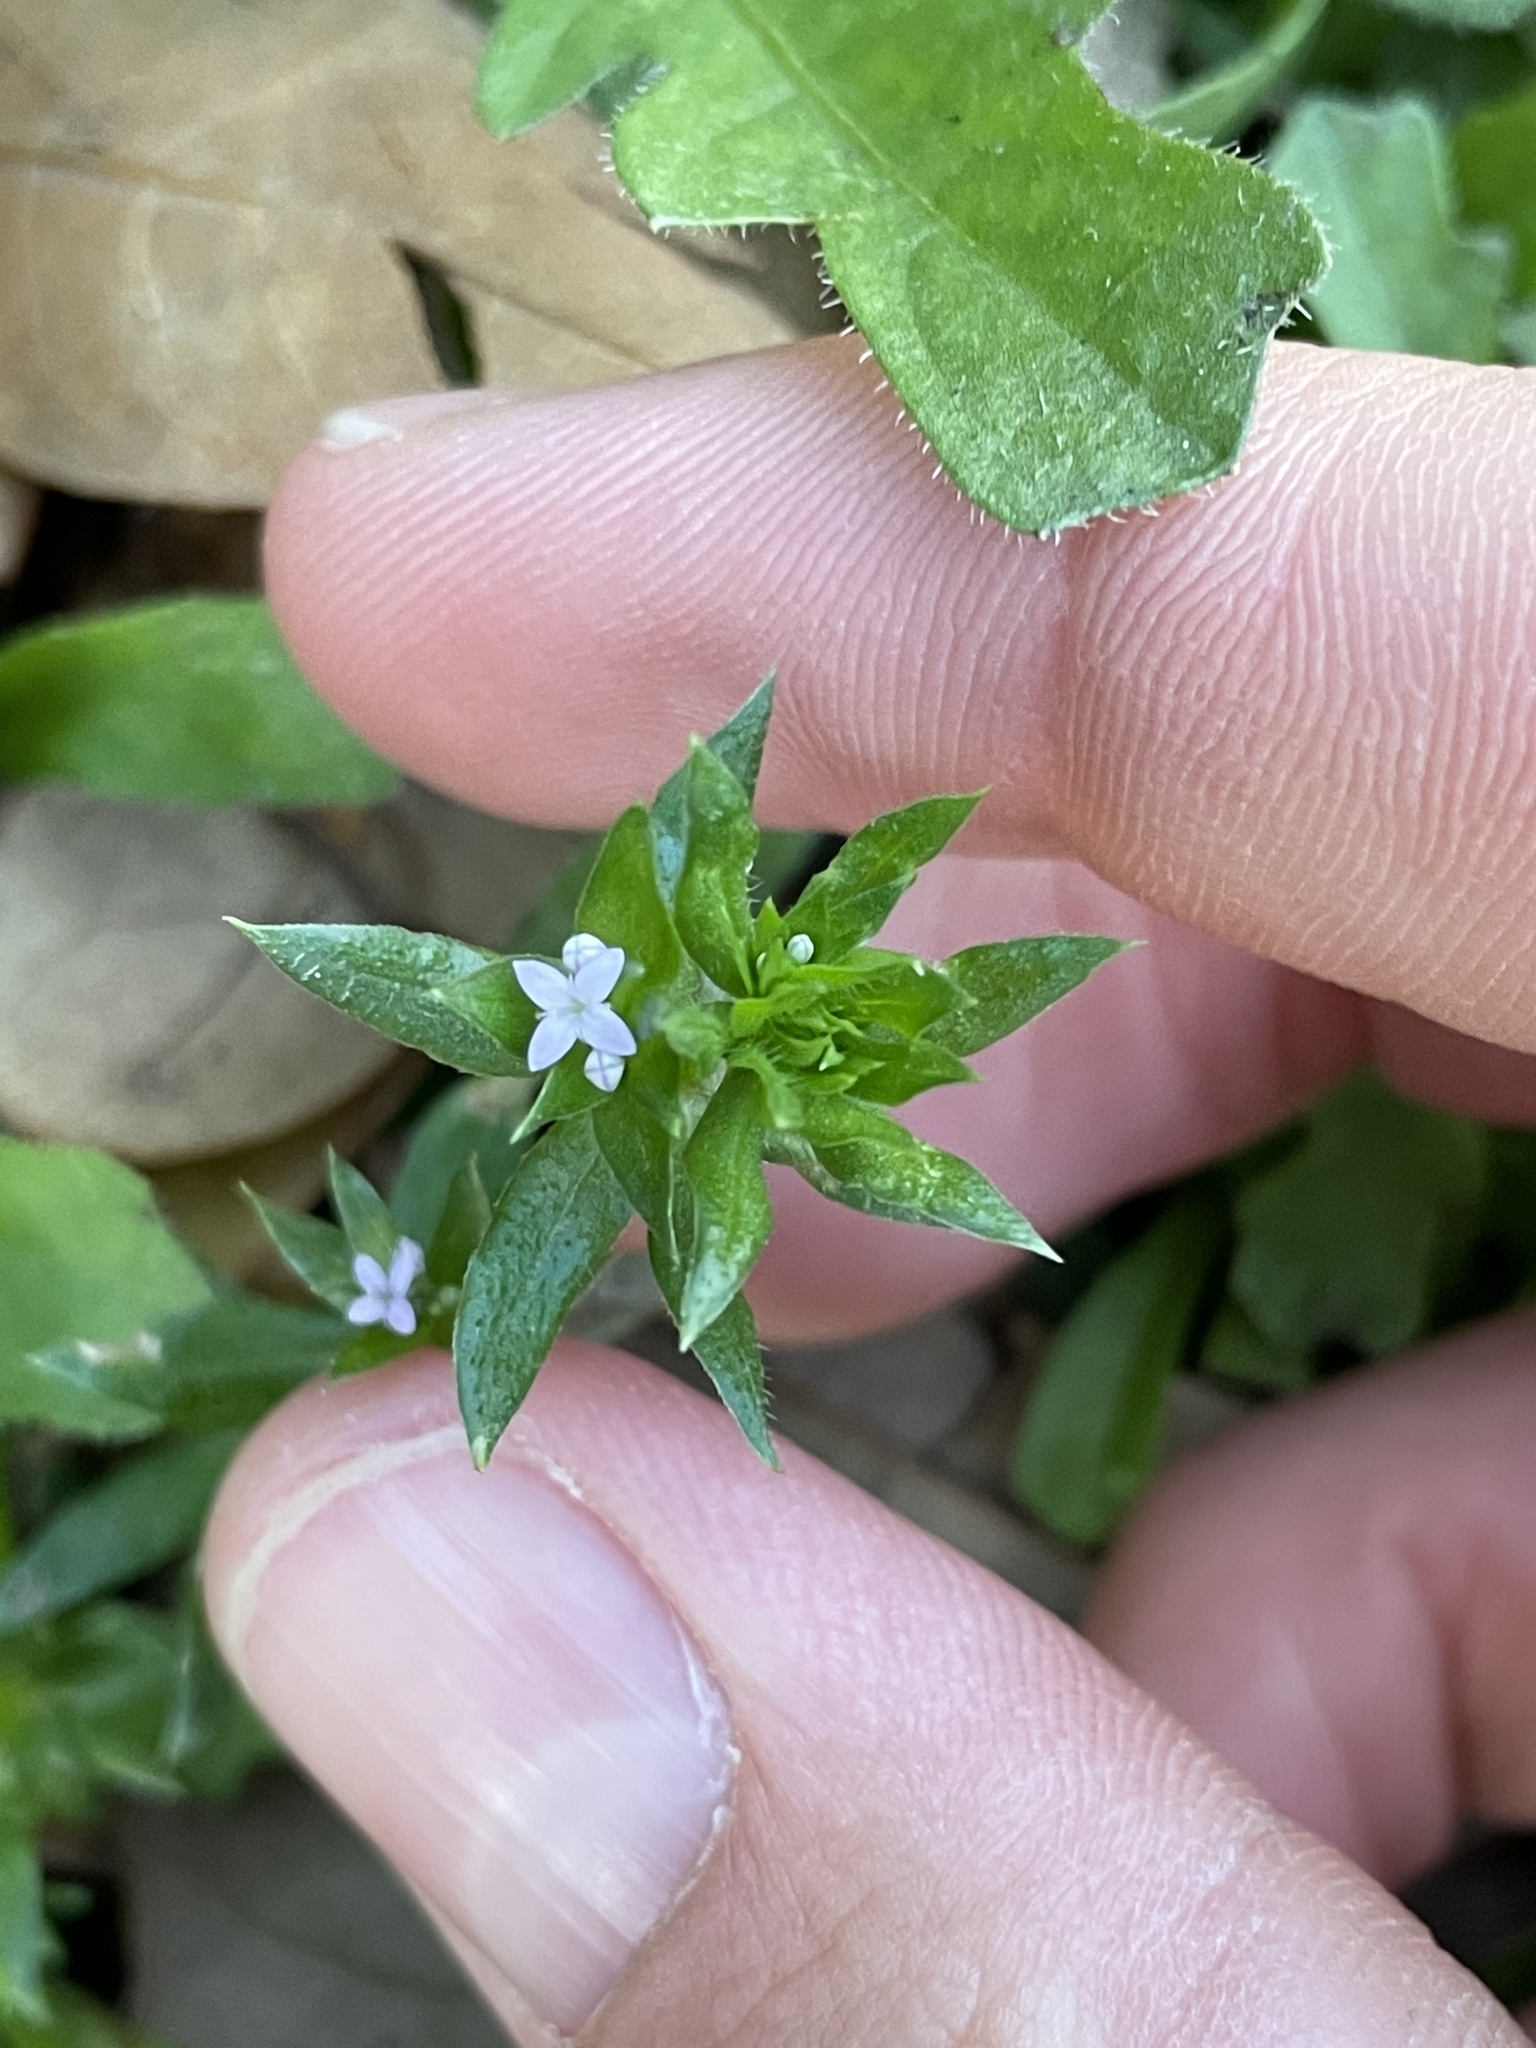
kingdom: Plantae
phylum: Tracheophyta
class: Magnoliopsida
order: Gentianales
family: Rubiaceae
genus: Sherardia
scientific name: Sherardia arvensis
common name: Field madder
